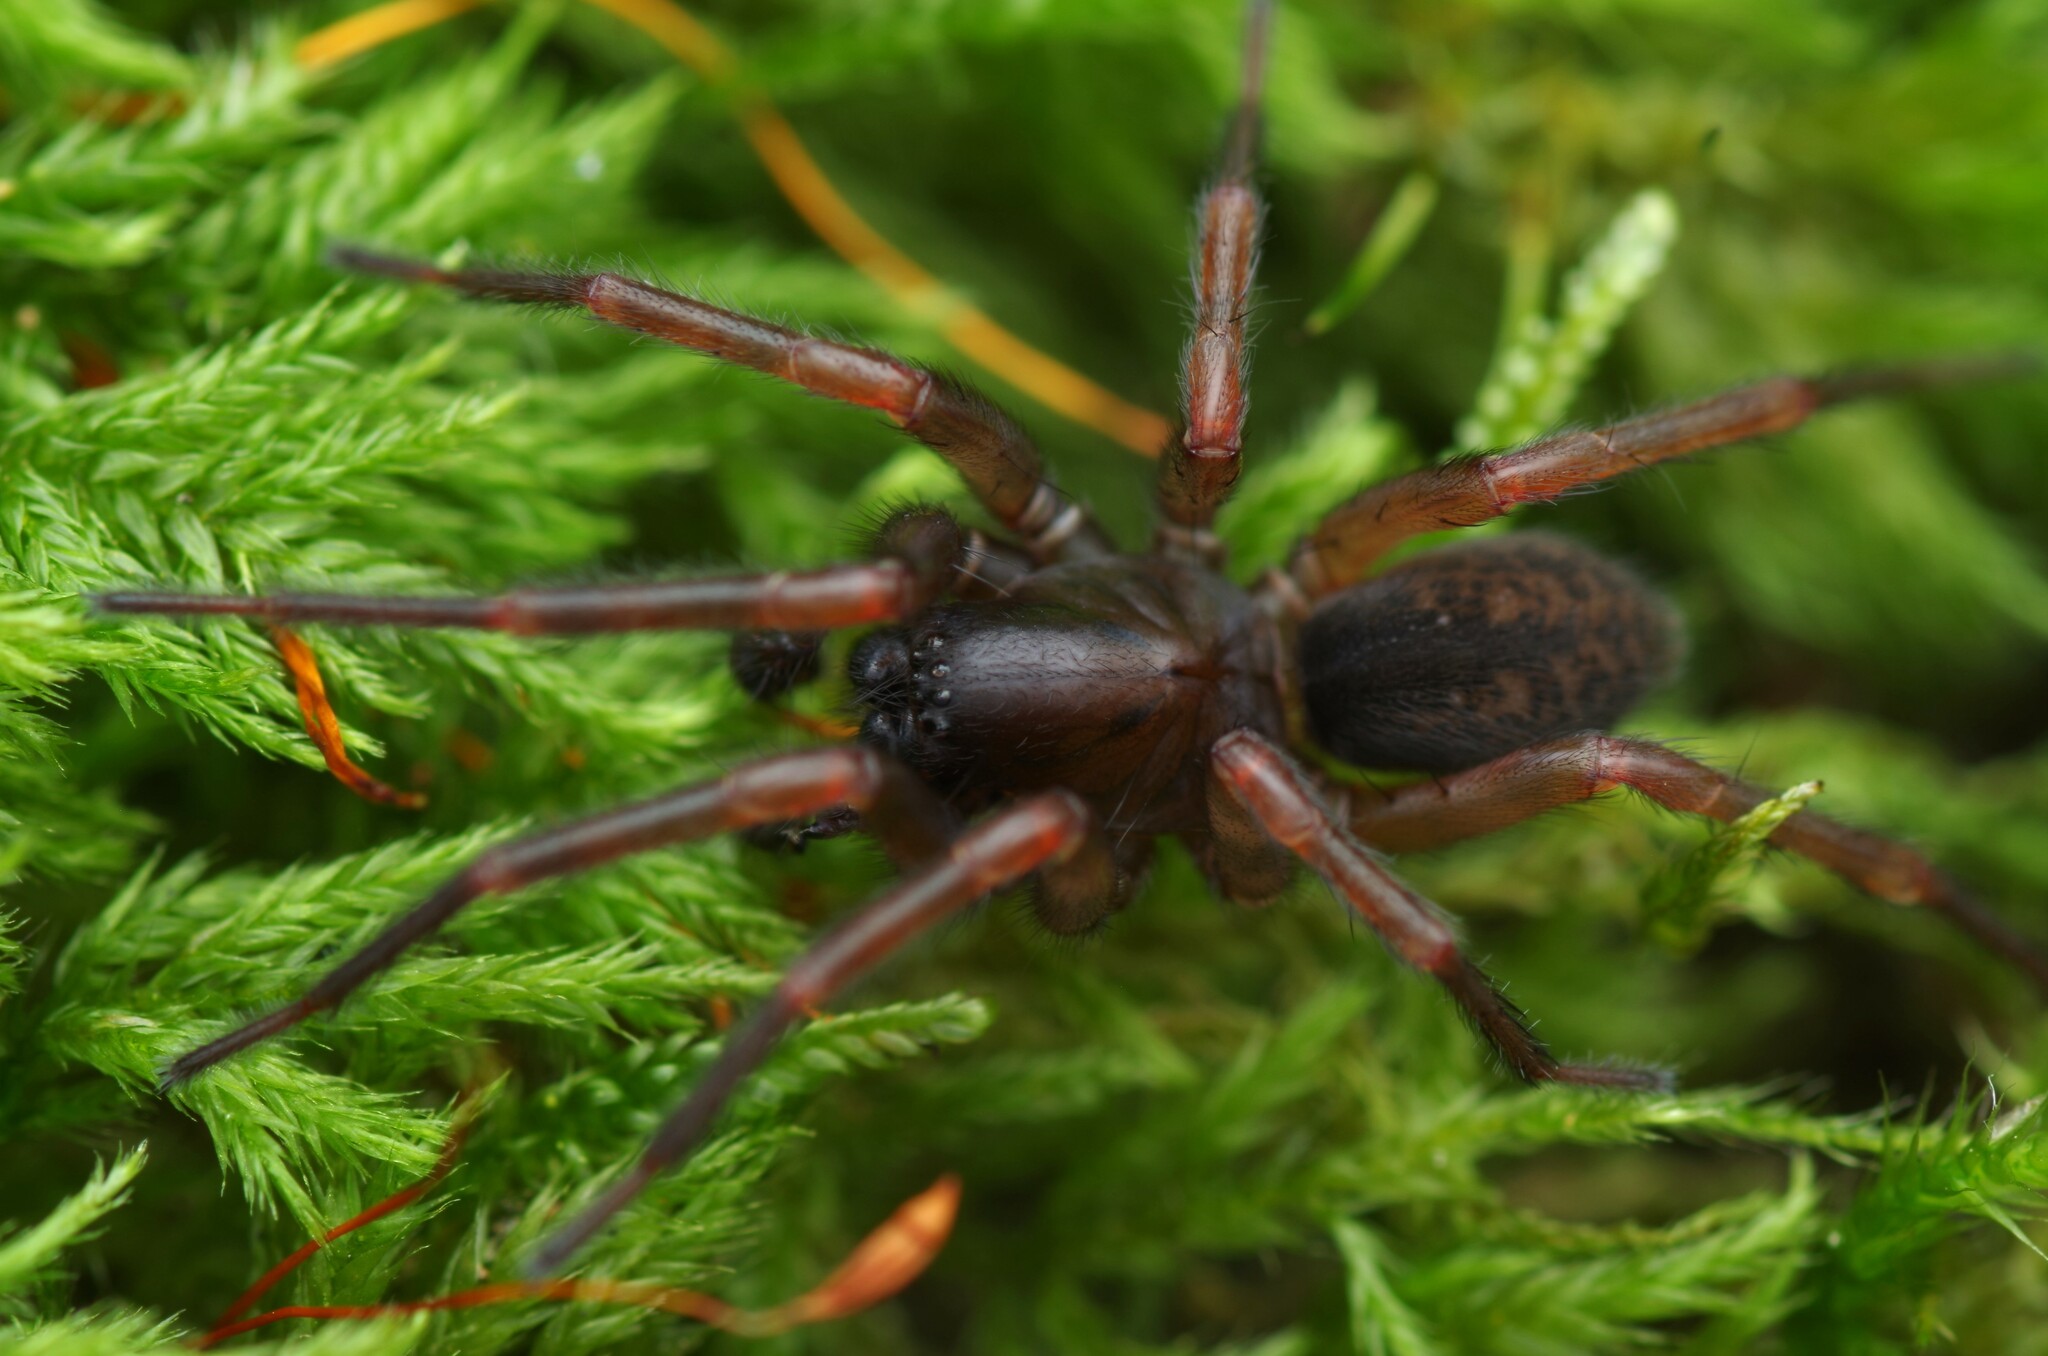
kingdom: Animalia
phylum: Arthropoda
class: Arachnida
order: Araneae
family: Agelenidae
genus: Coelotes
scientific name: Coelotes atropos
